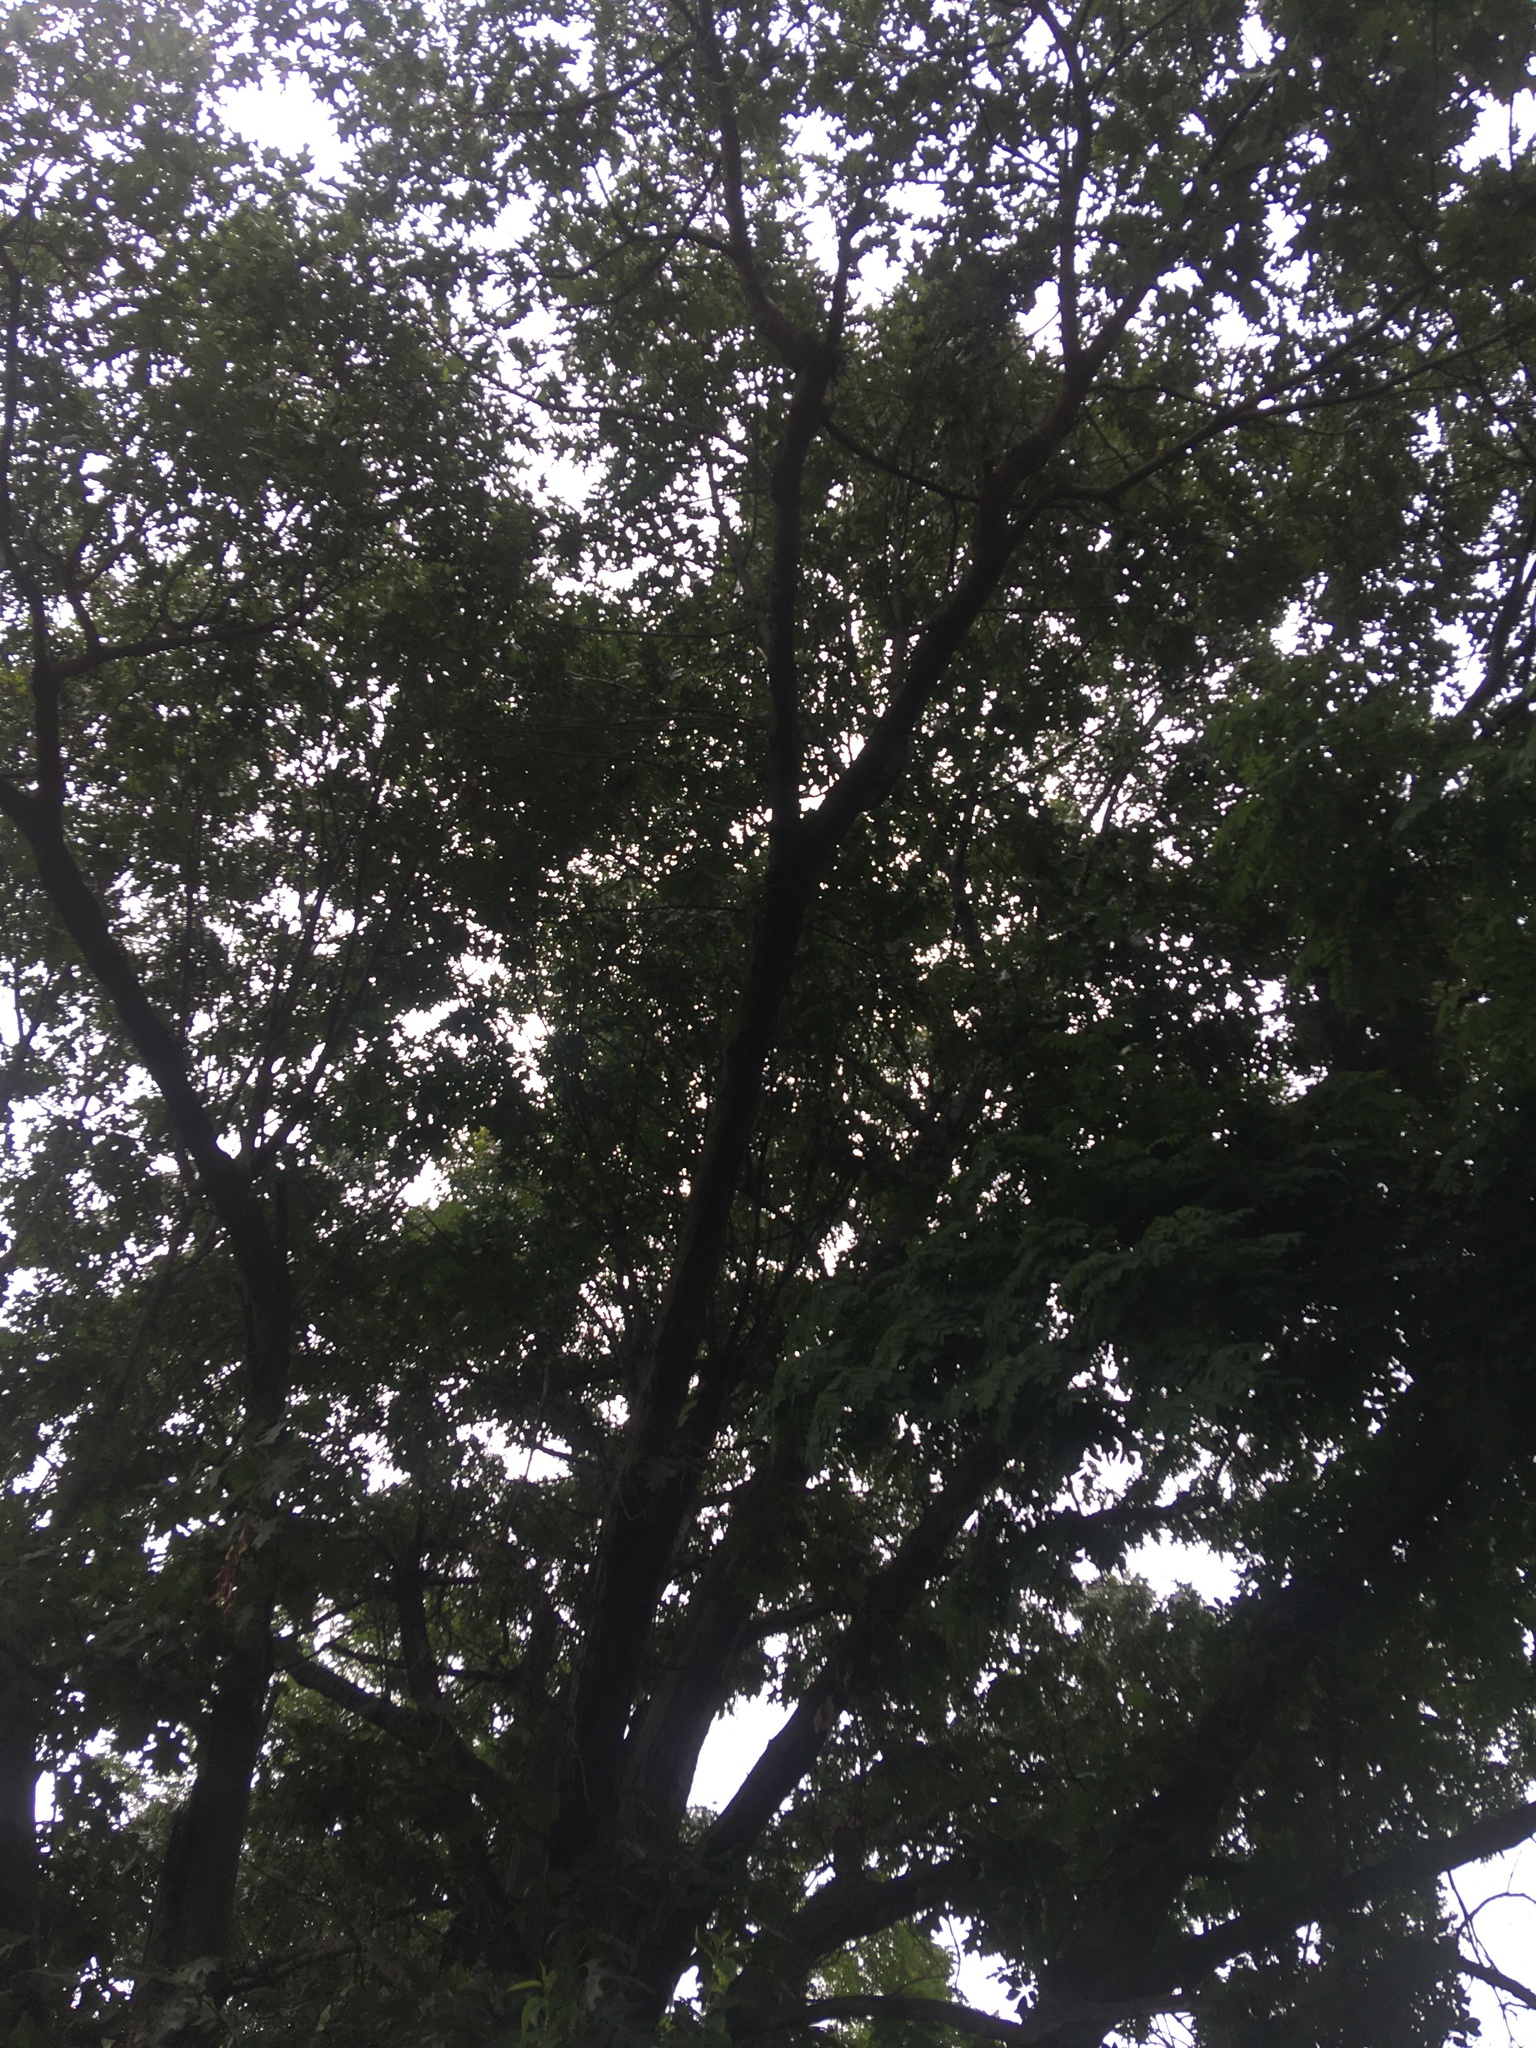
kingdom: Plantae
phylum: Tracheophyta
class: Magnoliopsida
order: Fagales
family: Fagaceae
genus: Quercus
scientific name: Quercus rubra
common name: Red oak
